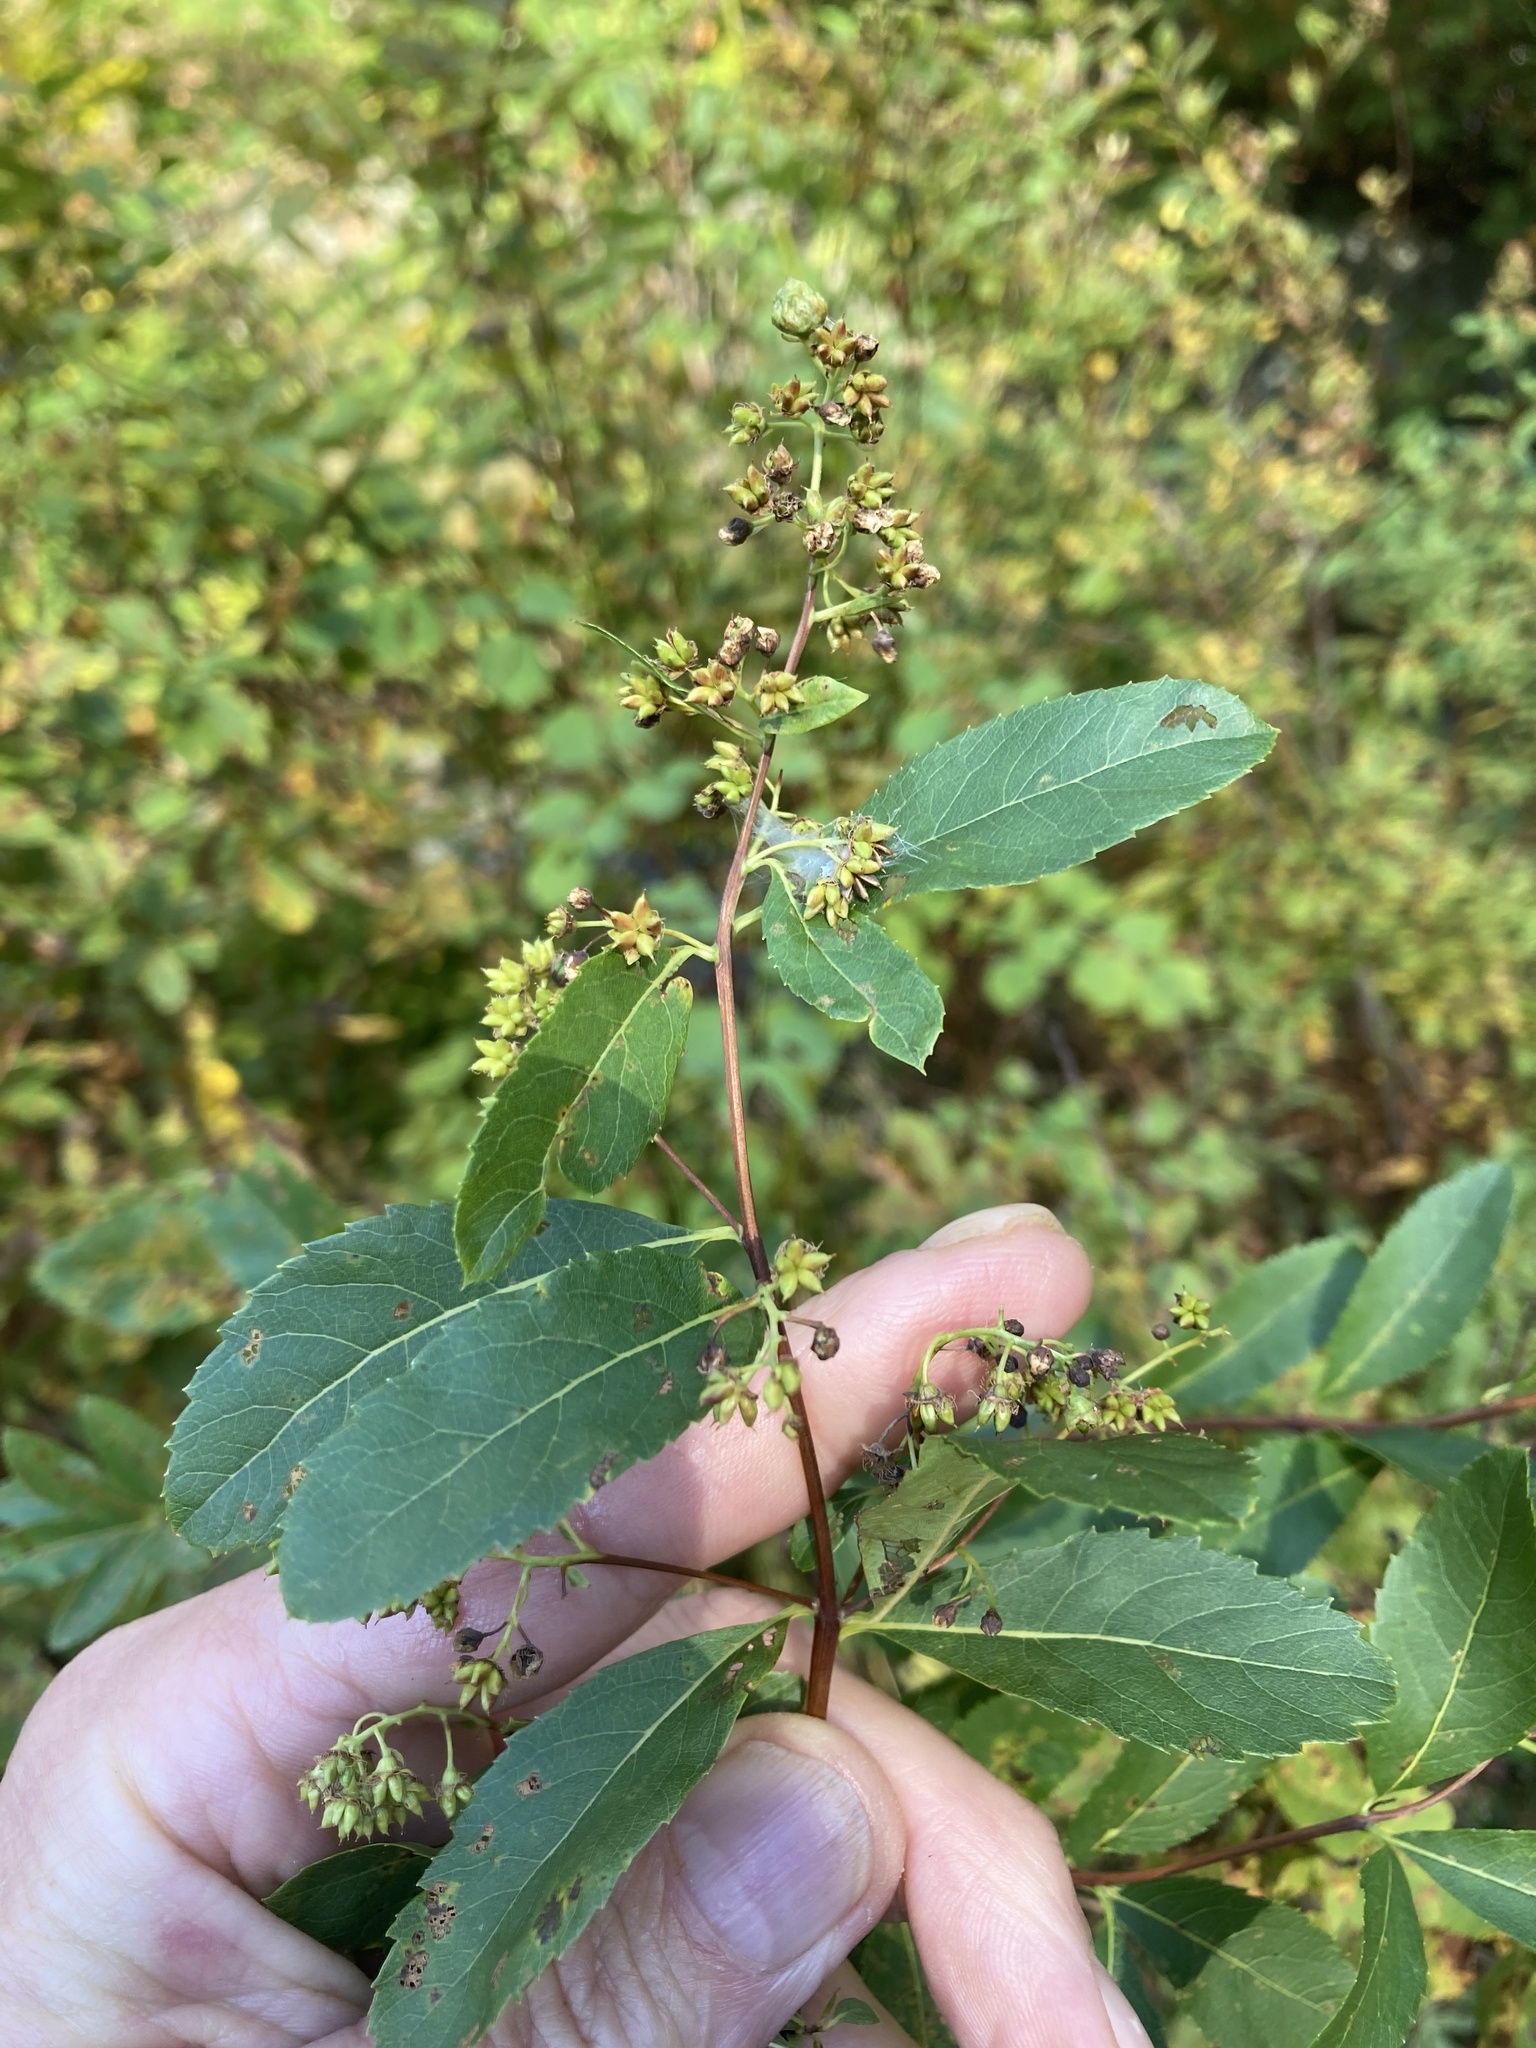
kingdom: Plantae
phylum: Tracheophyta
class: Magnoliopsida
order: Rosales
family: Rosaceae
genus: Spiraea
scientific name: Spiraea alba
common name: Pale bridewort
